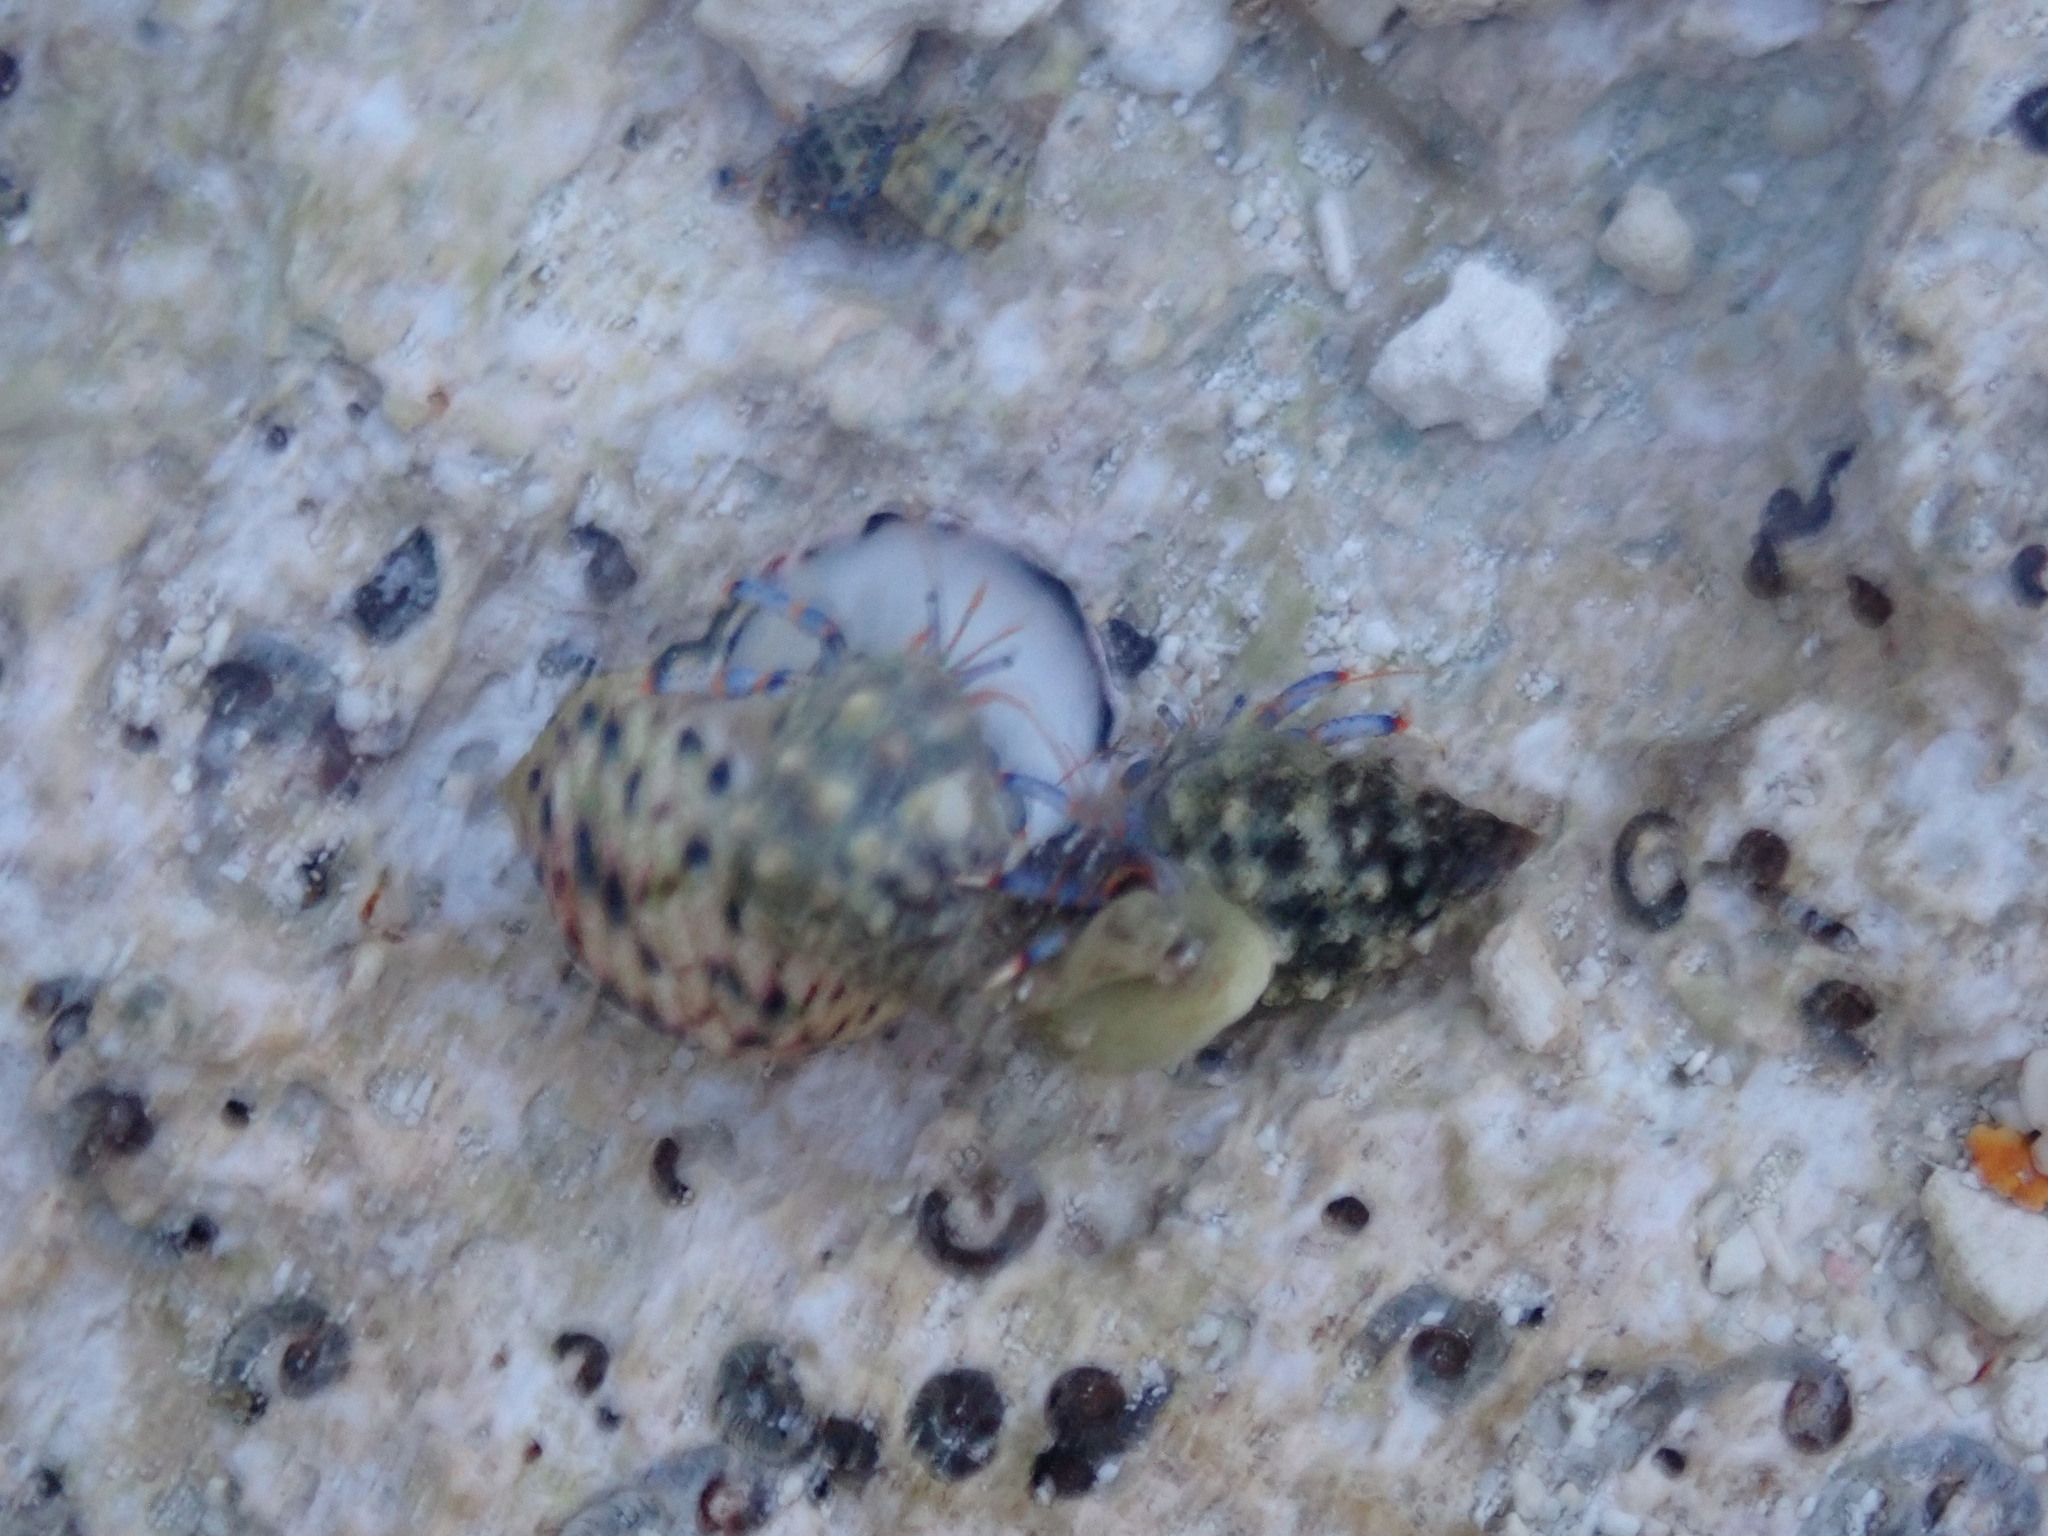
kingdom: Animalia
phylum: Arthropoda
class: Malacostraca
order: Decapoda
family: Diogenidae
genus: Clibanarius
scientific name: Clibanarius tricolor
